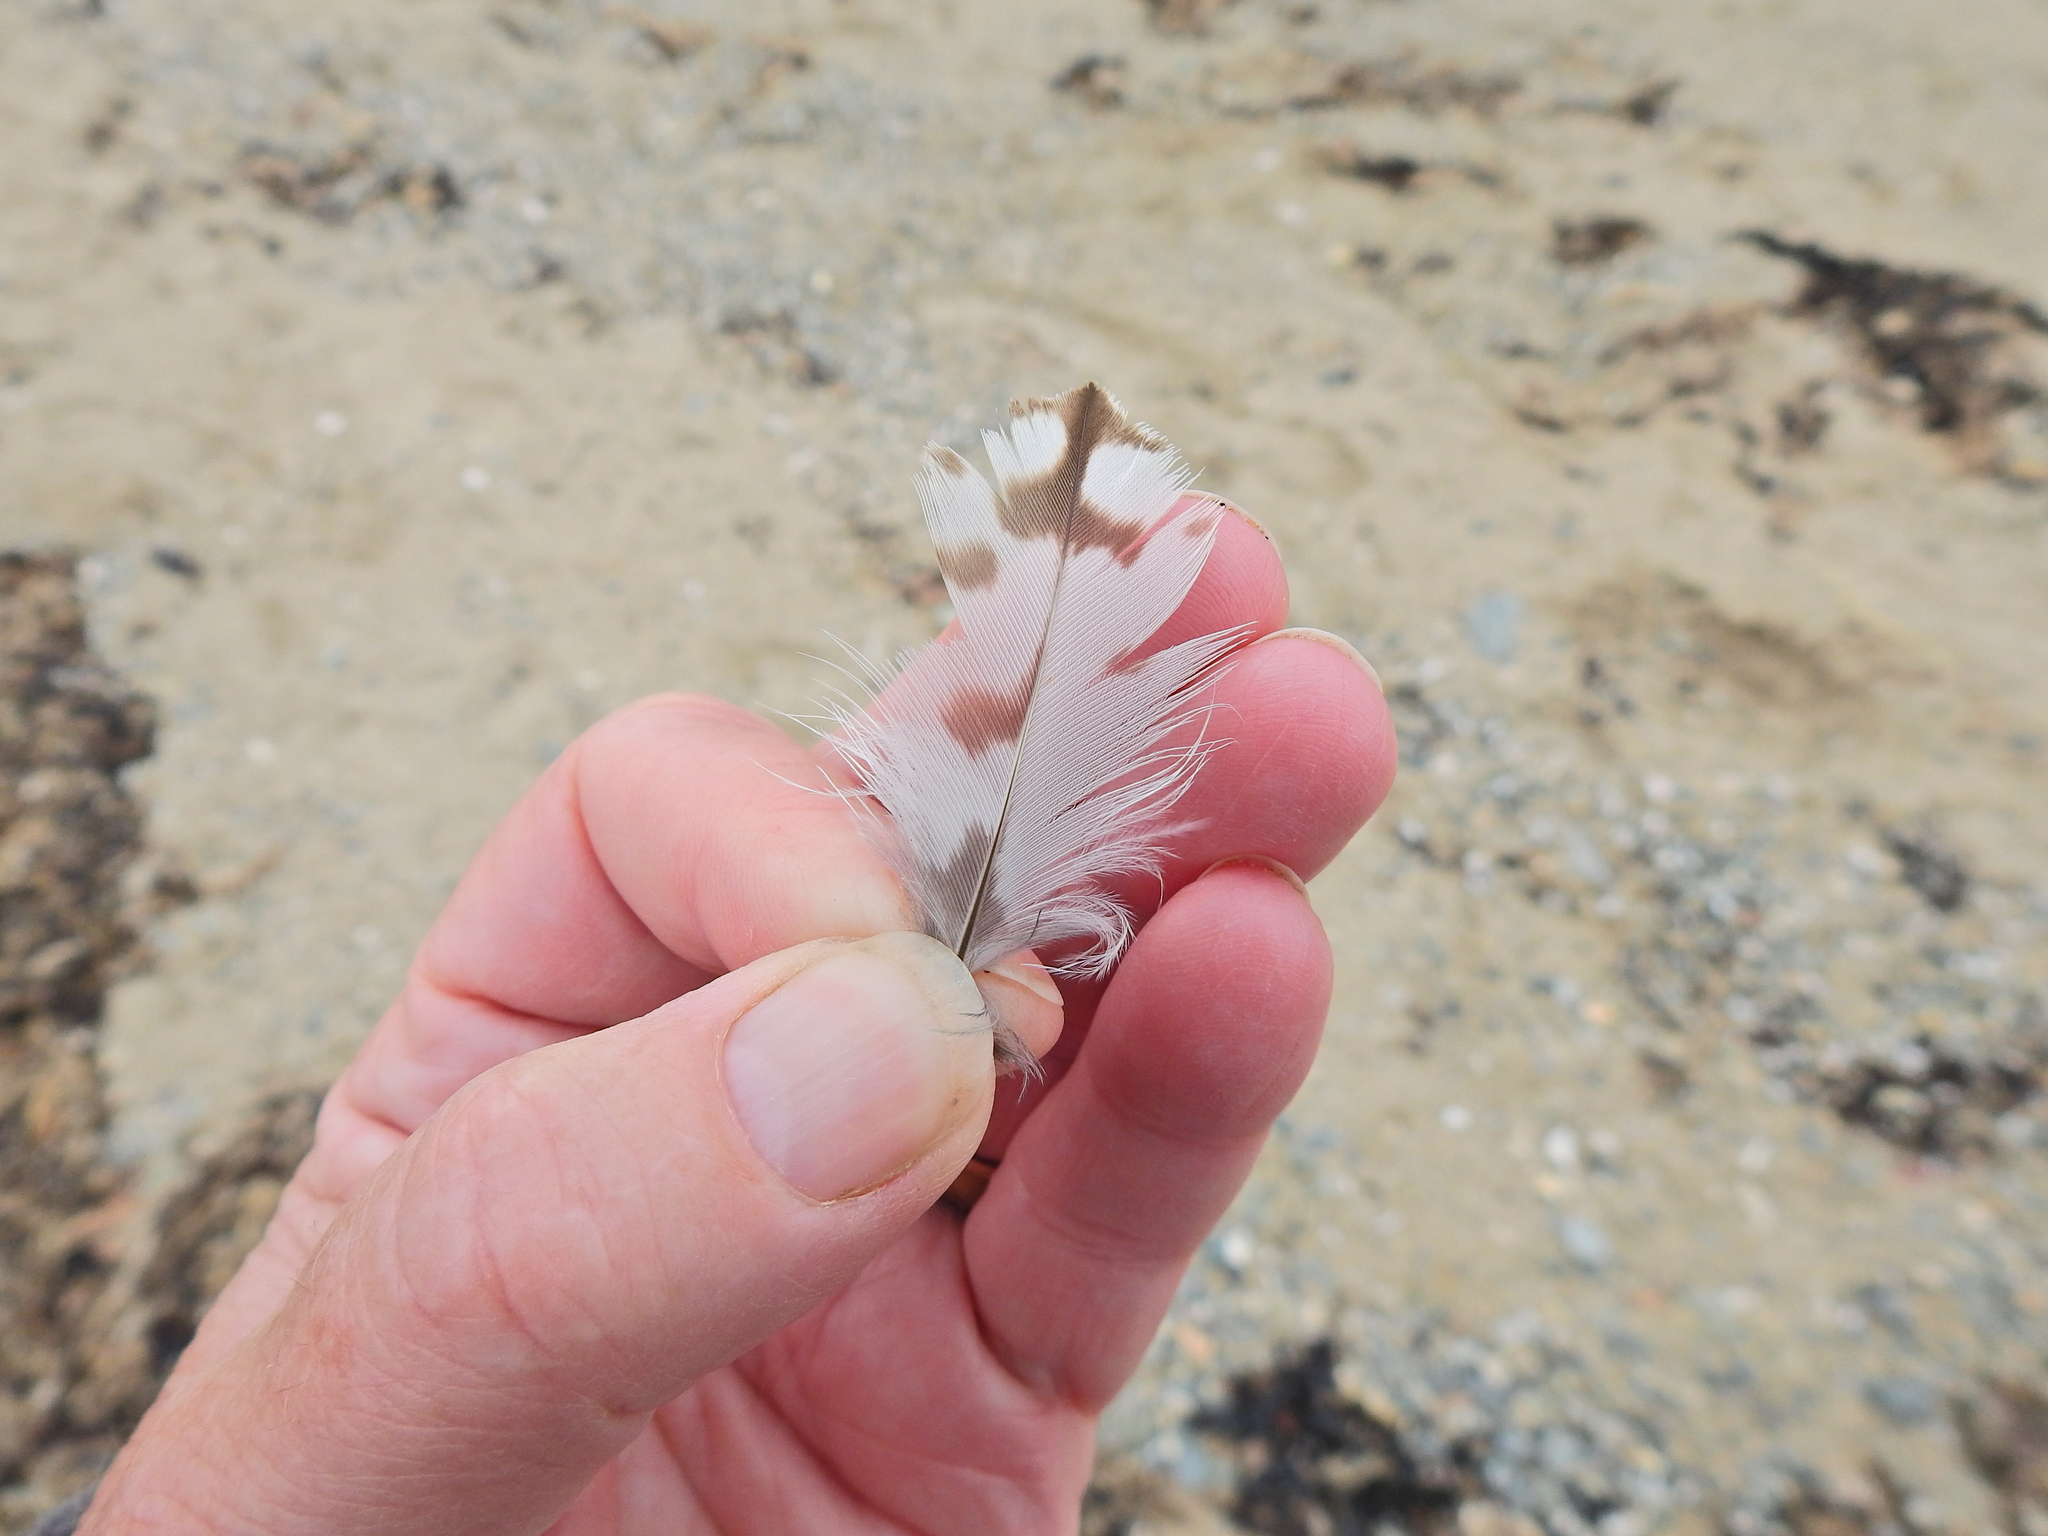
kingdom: Animalia
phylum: Chordata
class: Aves
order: Charadriiformes
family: Scolopacidae
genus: Numenius
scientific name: Numenius arquata
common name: Eurasian curlew
